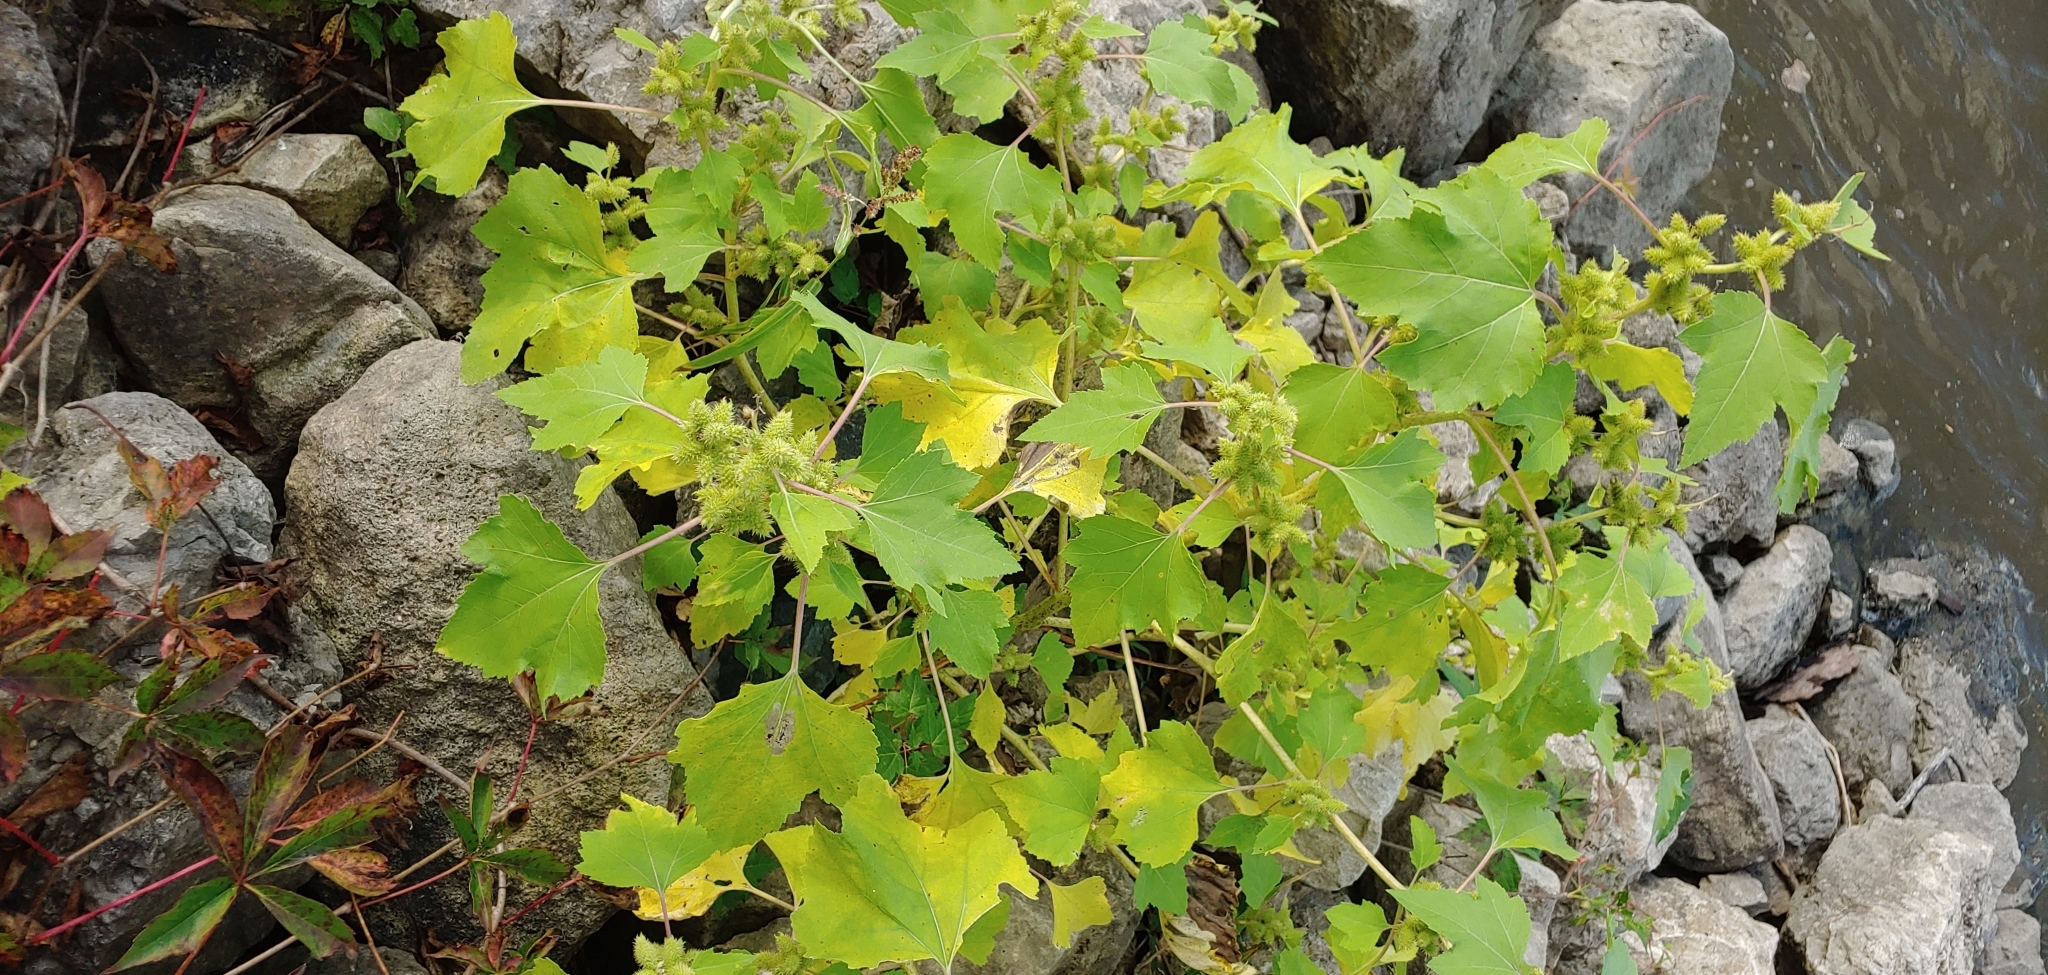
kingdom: Plantae
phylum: Tracheophyta
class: Magnoliopsida
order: Asterales
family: Asteraceae
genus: Xanthium
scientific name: Xanthium strumarium
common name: Rough cocklebur
